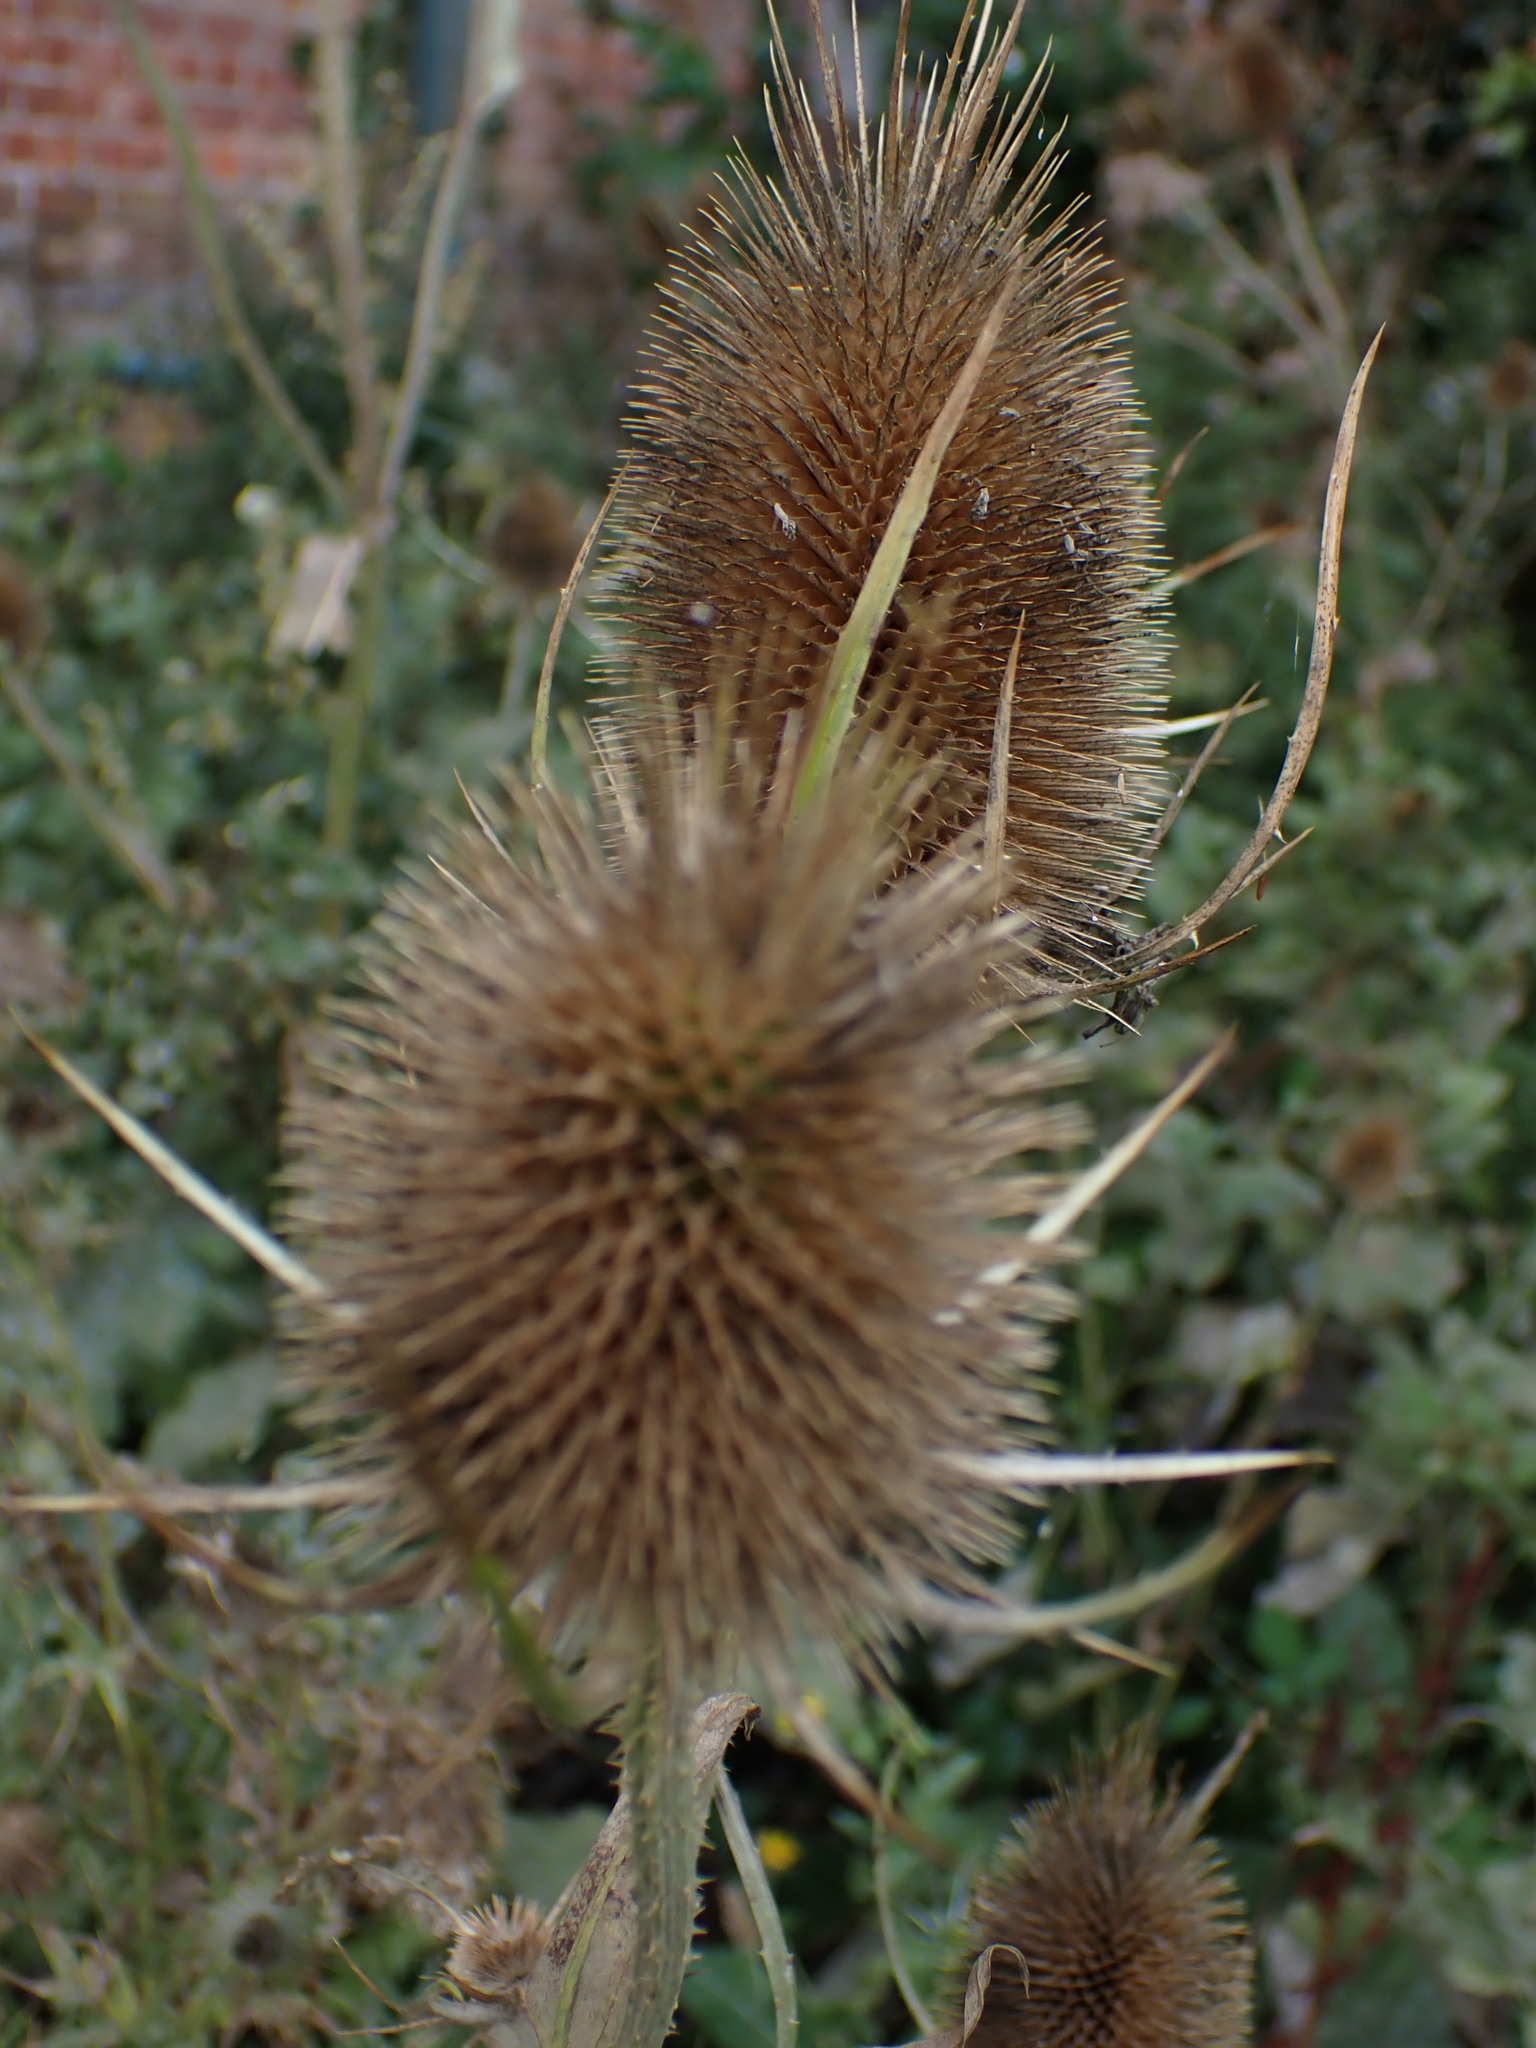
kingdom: Plantae
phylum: Tracheophyta
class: Magnoliopsida
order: Dipsacales
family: Caprifoliaceae
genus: Dipsacus
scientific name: Dipsacus fullonum
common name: Teasel
